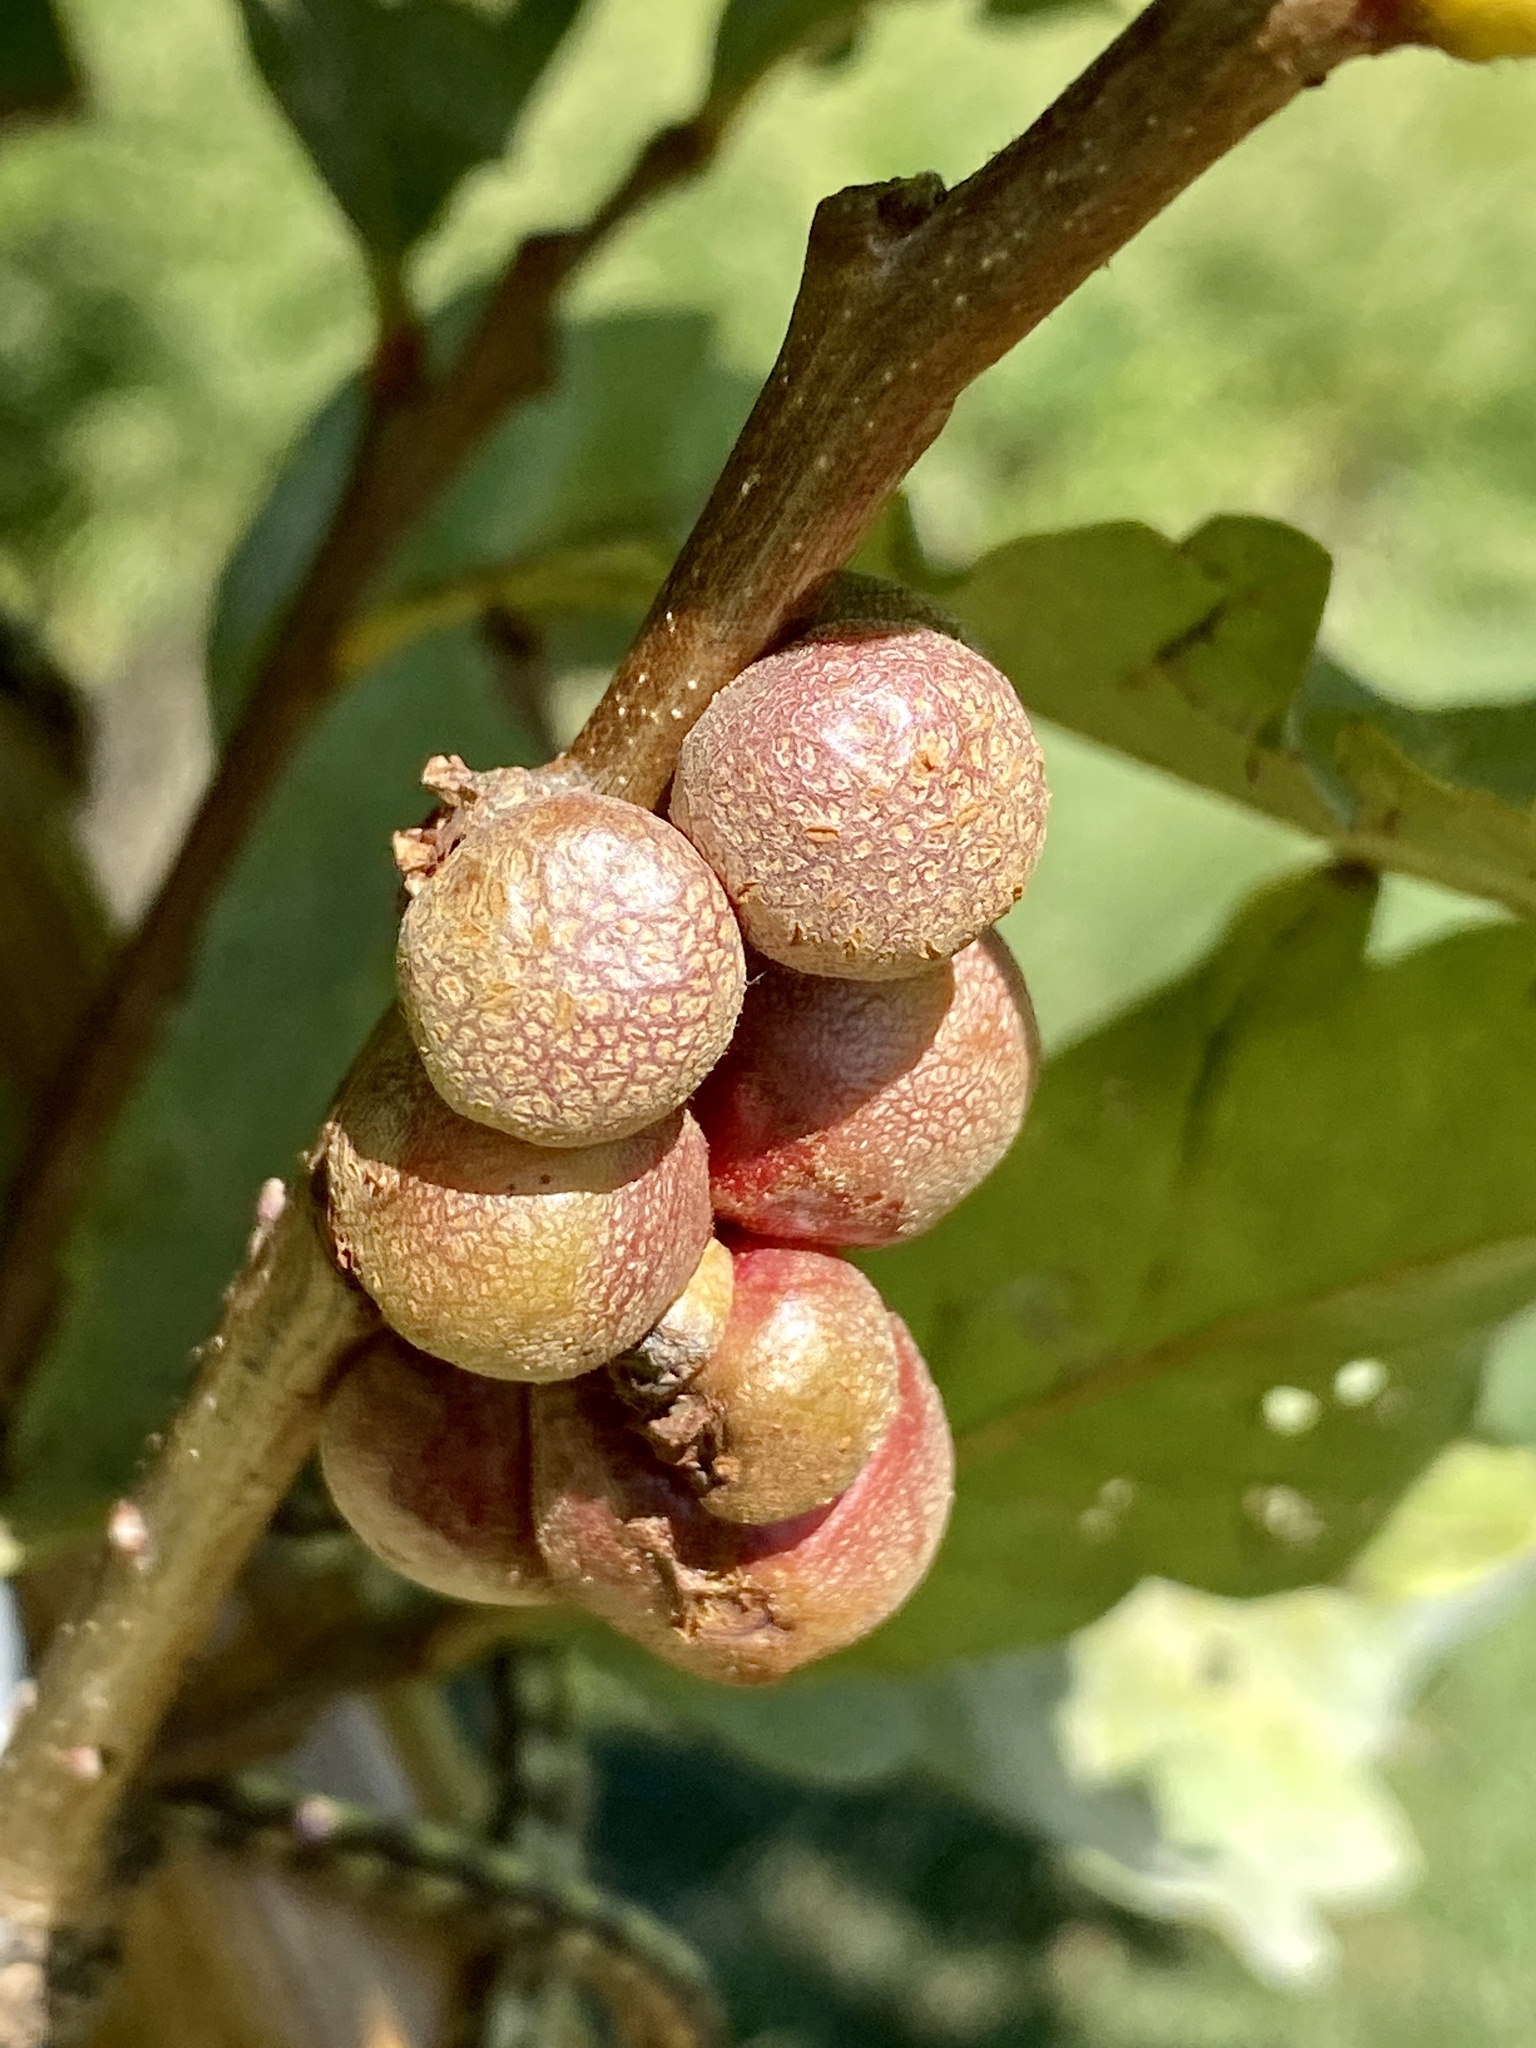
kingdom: Animalia
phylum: Arthropoda
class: Insecta
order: Hymenoptera
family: Cynipidae
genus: Andricus
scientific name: Andricus
